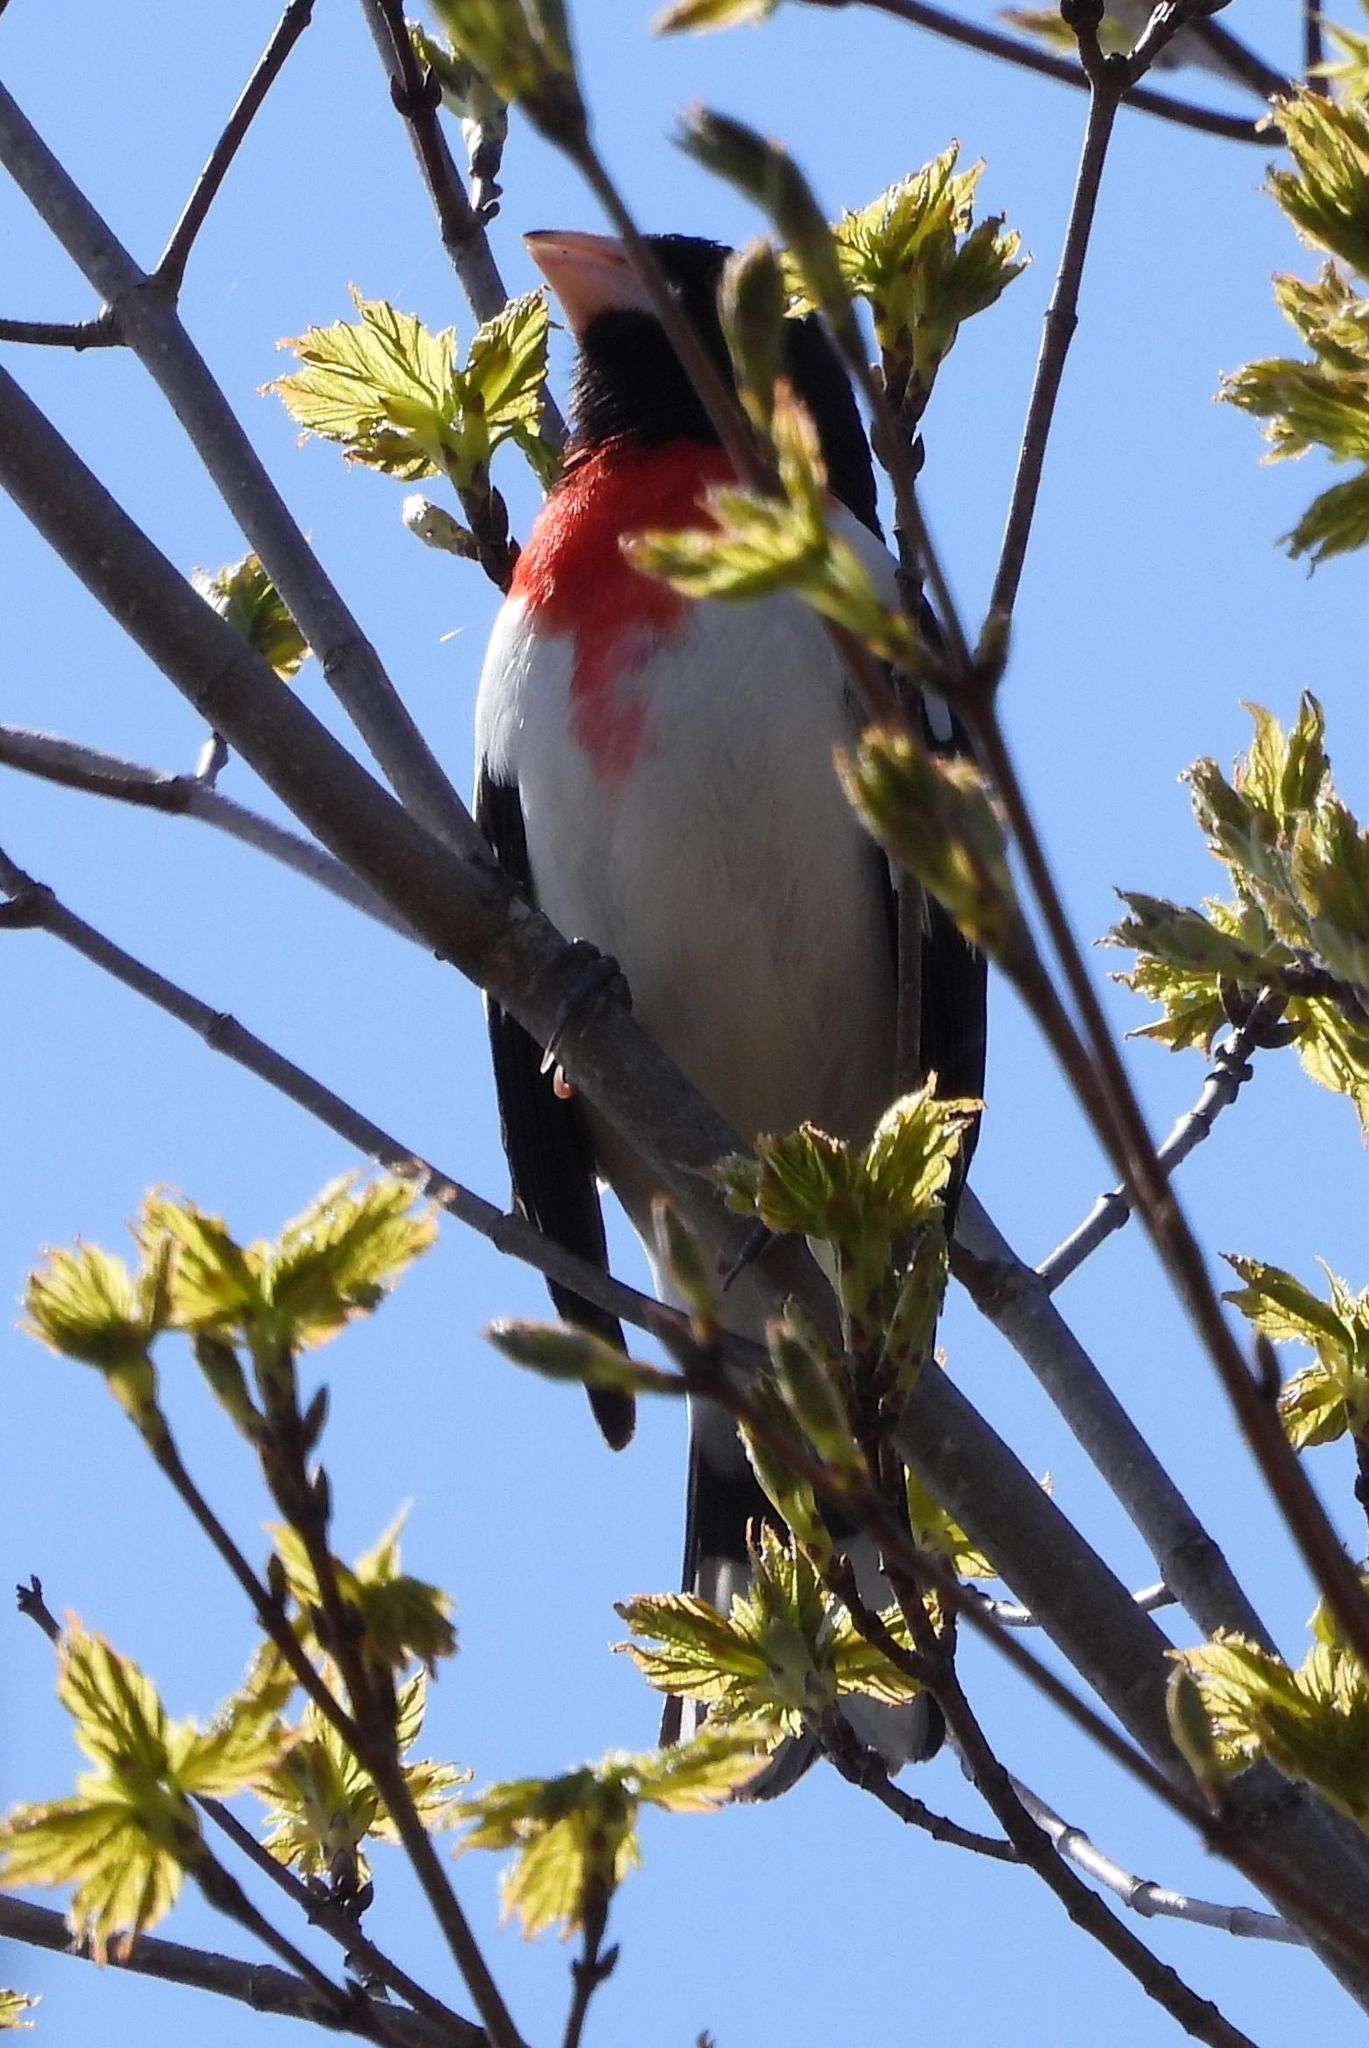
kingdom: Animalia
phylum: Chordata
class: Aves
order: Passeriformes
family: Cardinalidae
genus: Pheucticus
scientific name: Pheucticus ludovicianus
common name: Rose-breasted grosbeak
